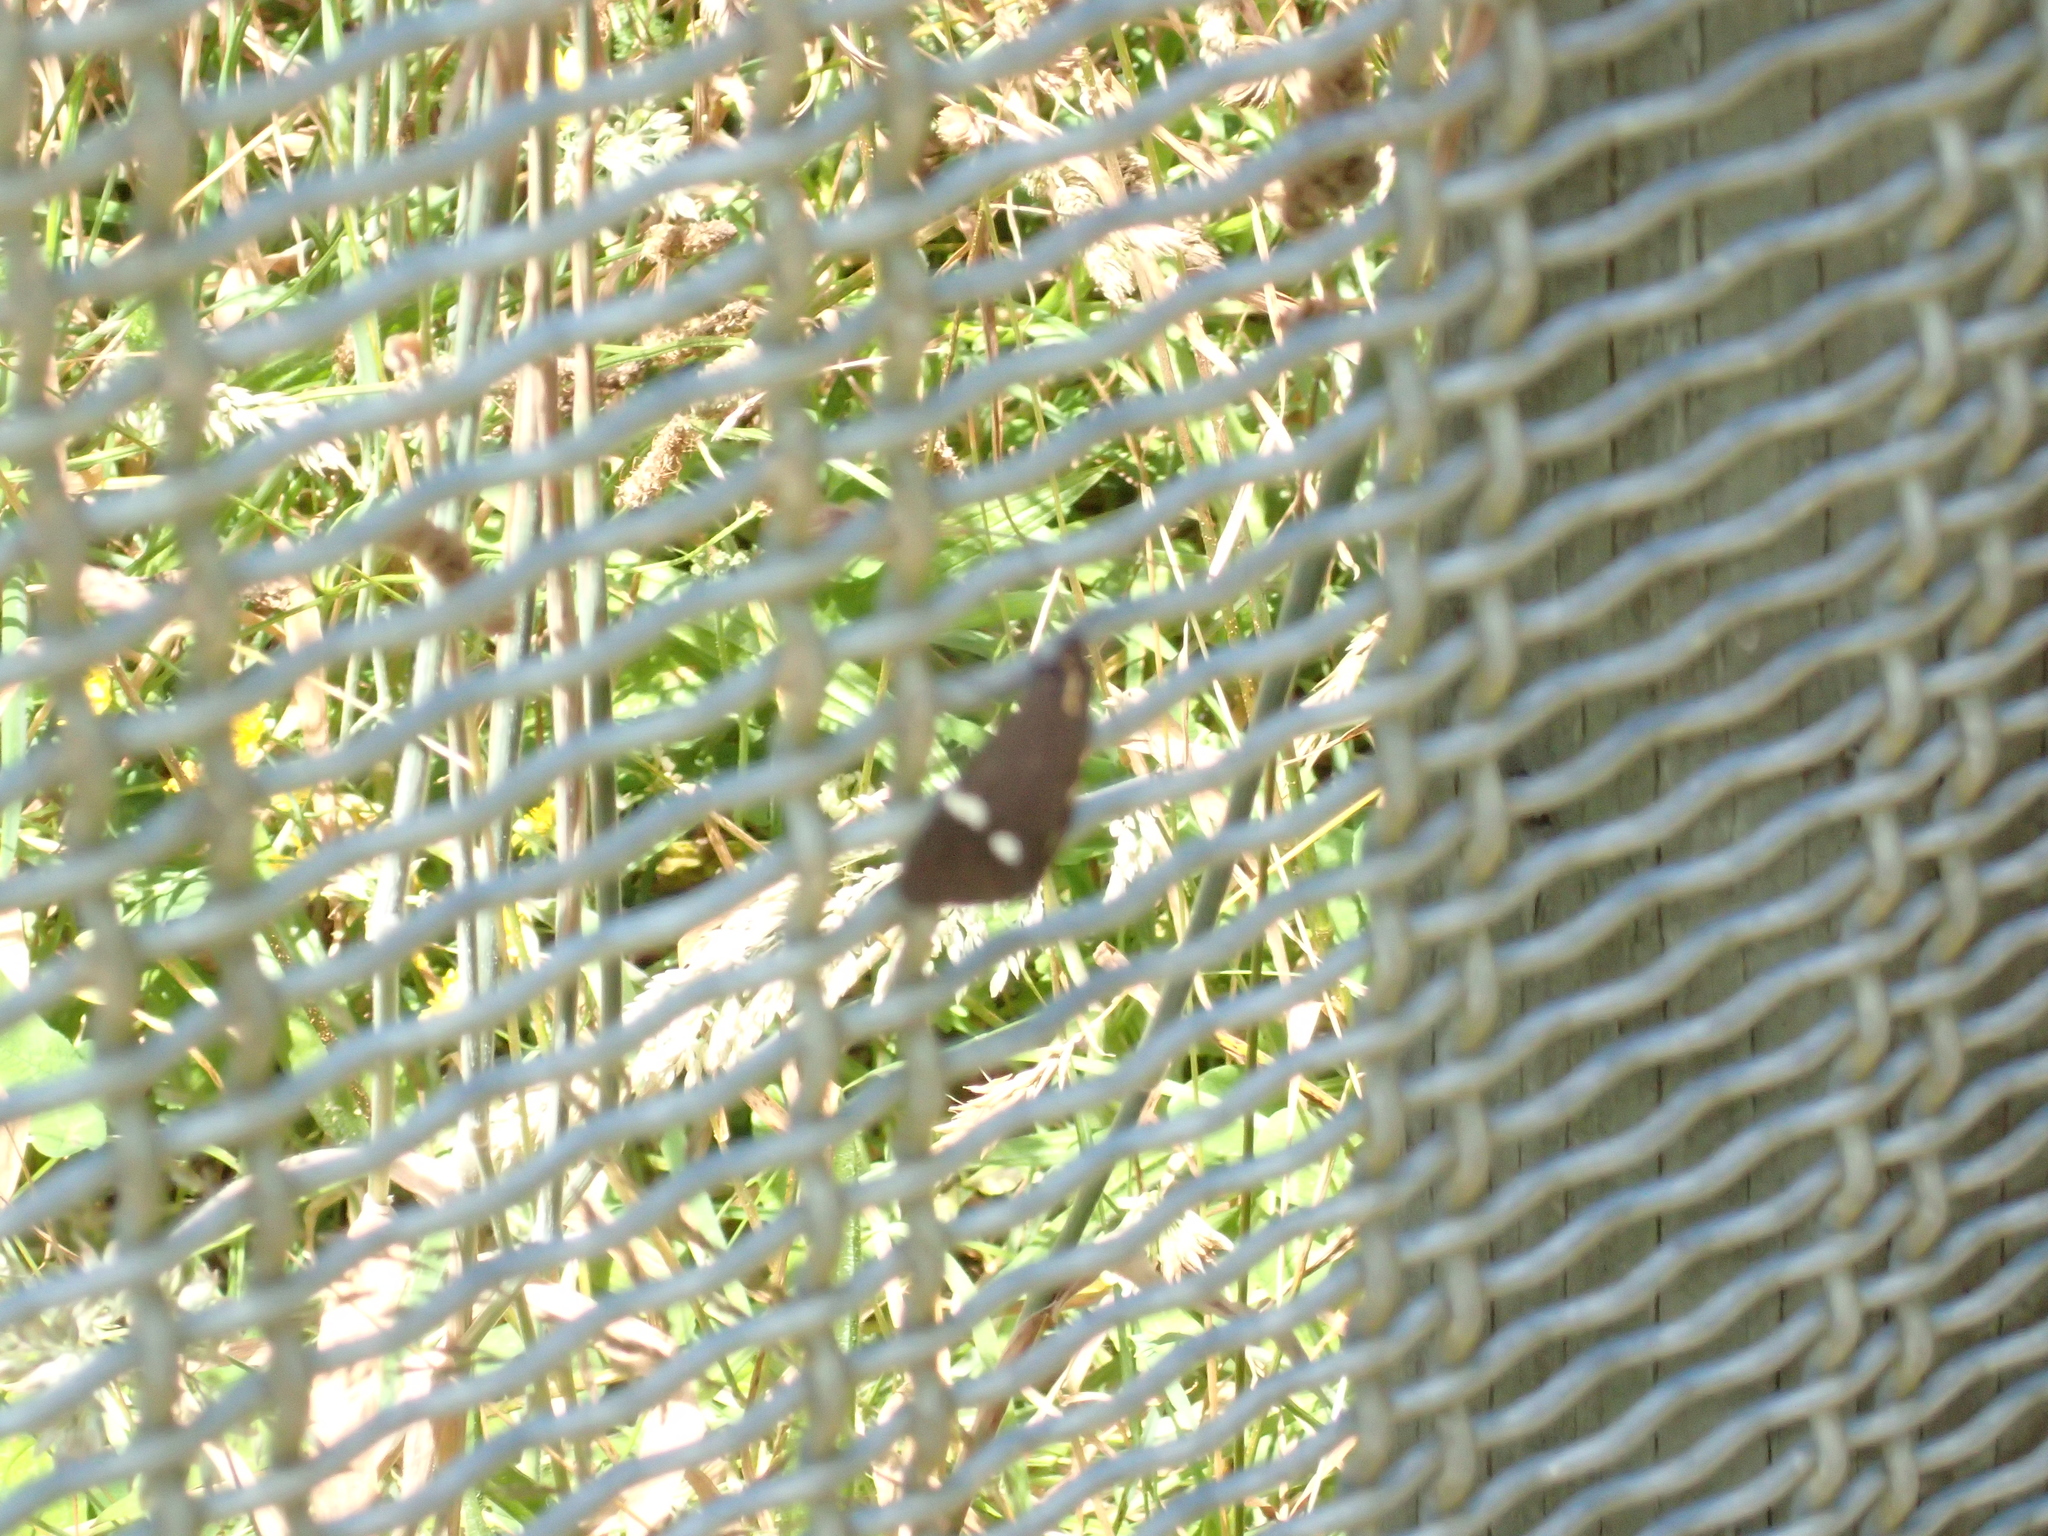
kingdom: Animalia
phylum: Arthropoda
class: Insecta
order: Lepidoptera
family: Erebidae
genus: Nyctemera
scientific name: Nyctemera annulatum
